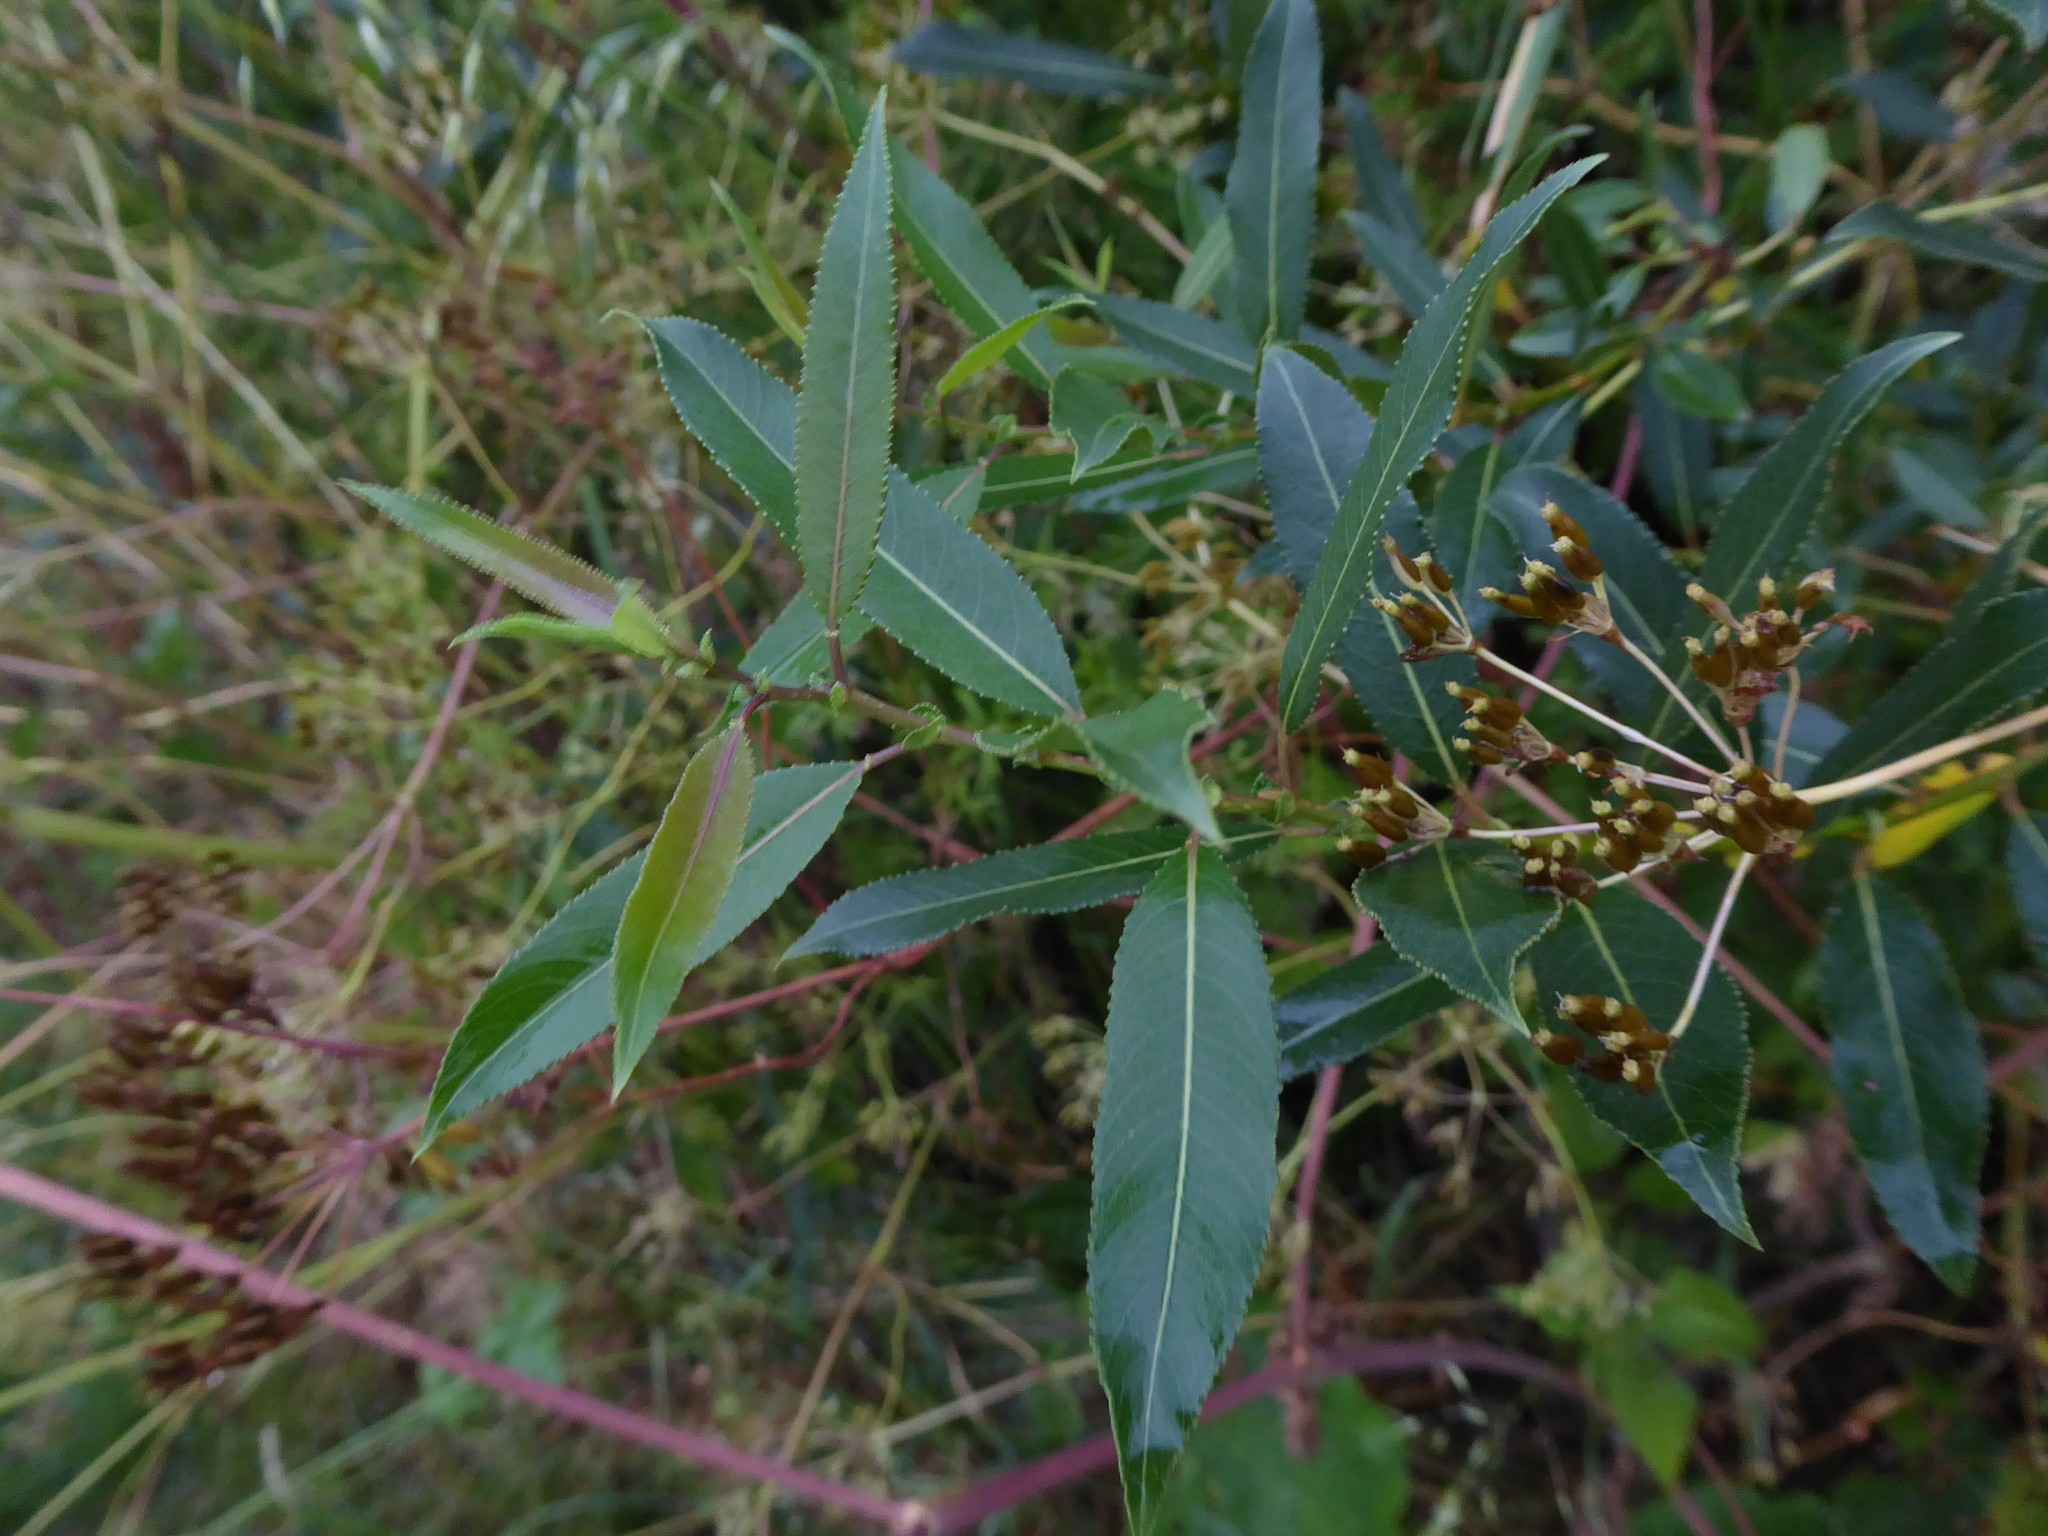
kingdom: Plantae
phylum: Tracheophyta
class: Magnoliopsida
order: Malpighiales
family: Salicaceae
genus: Salix
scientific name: Salix triandra
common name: Almond willow
